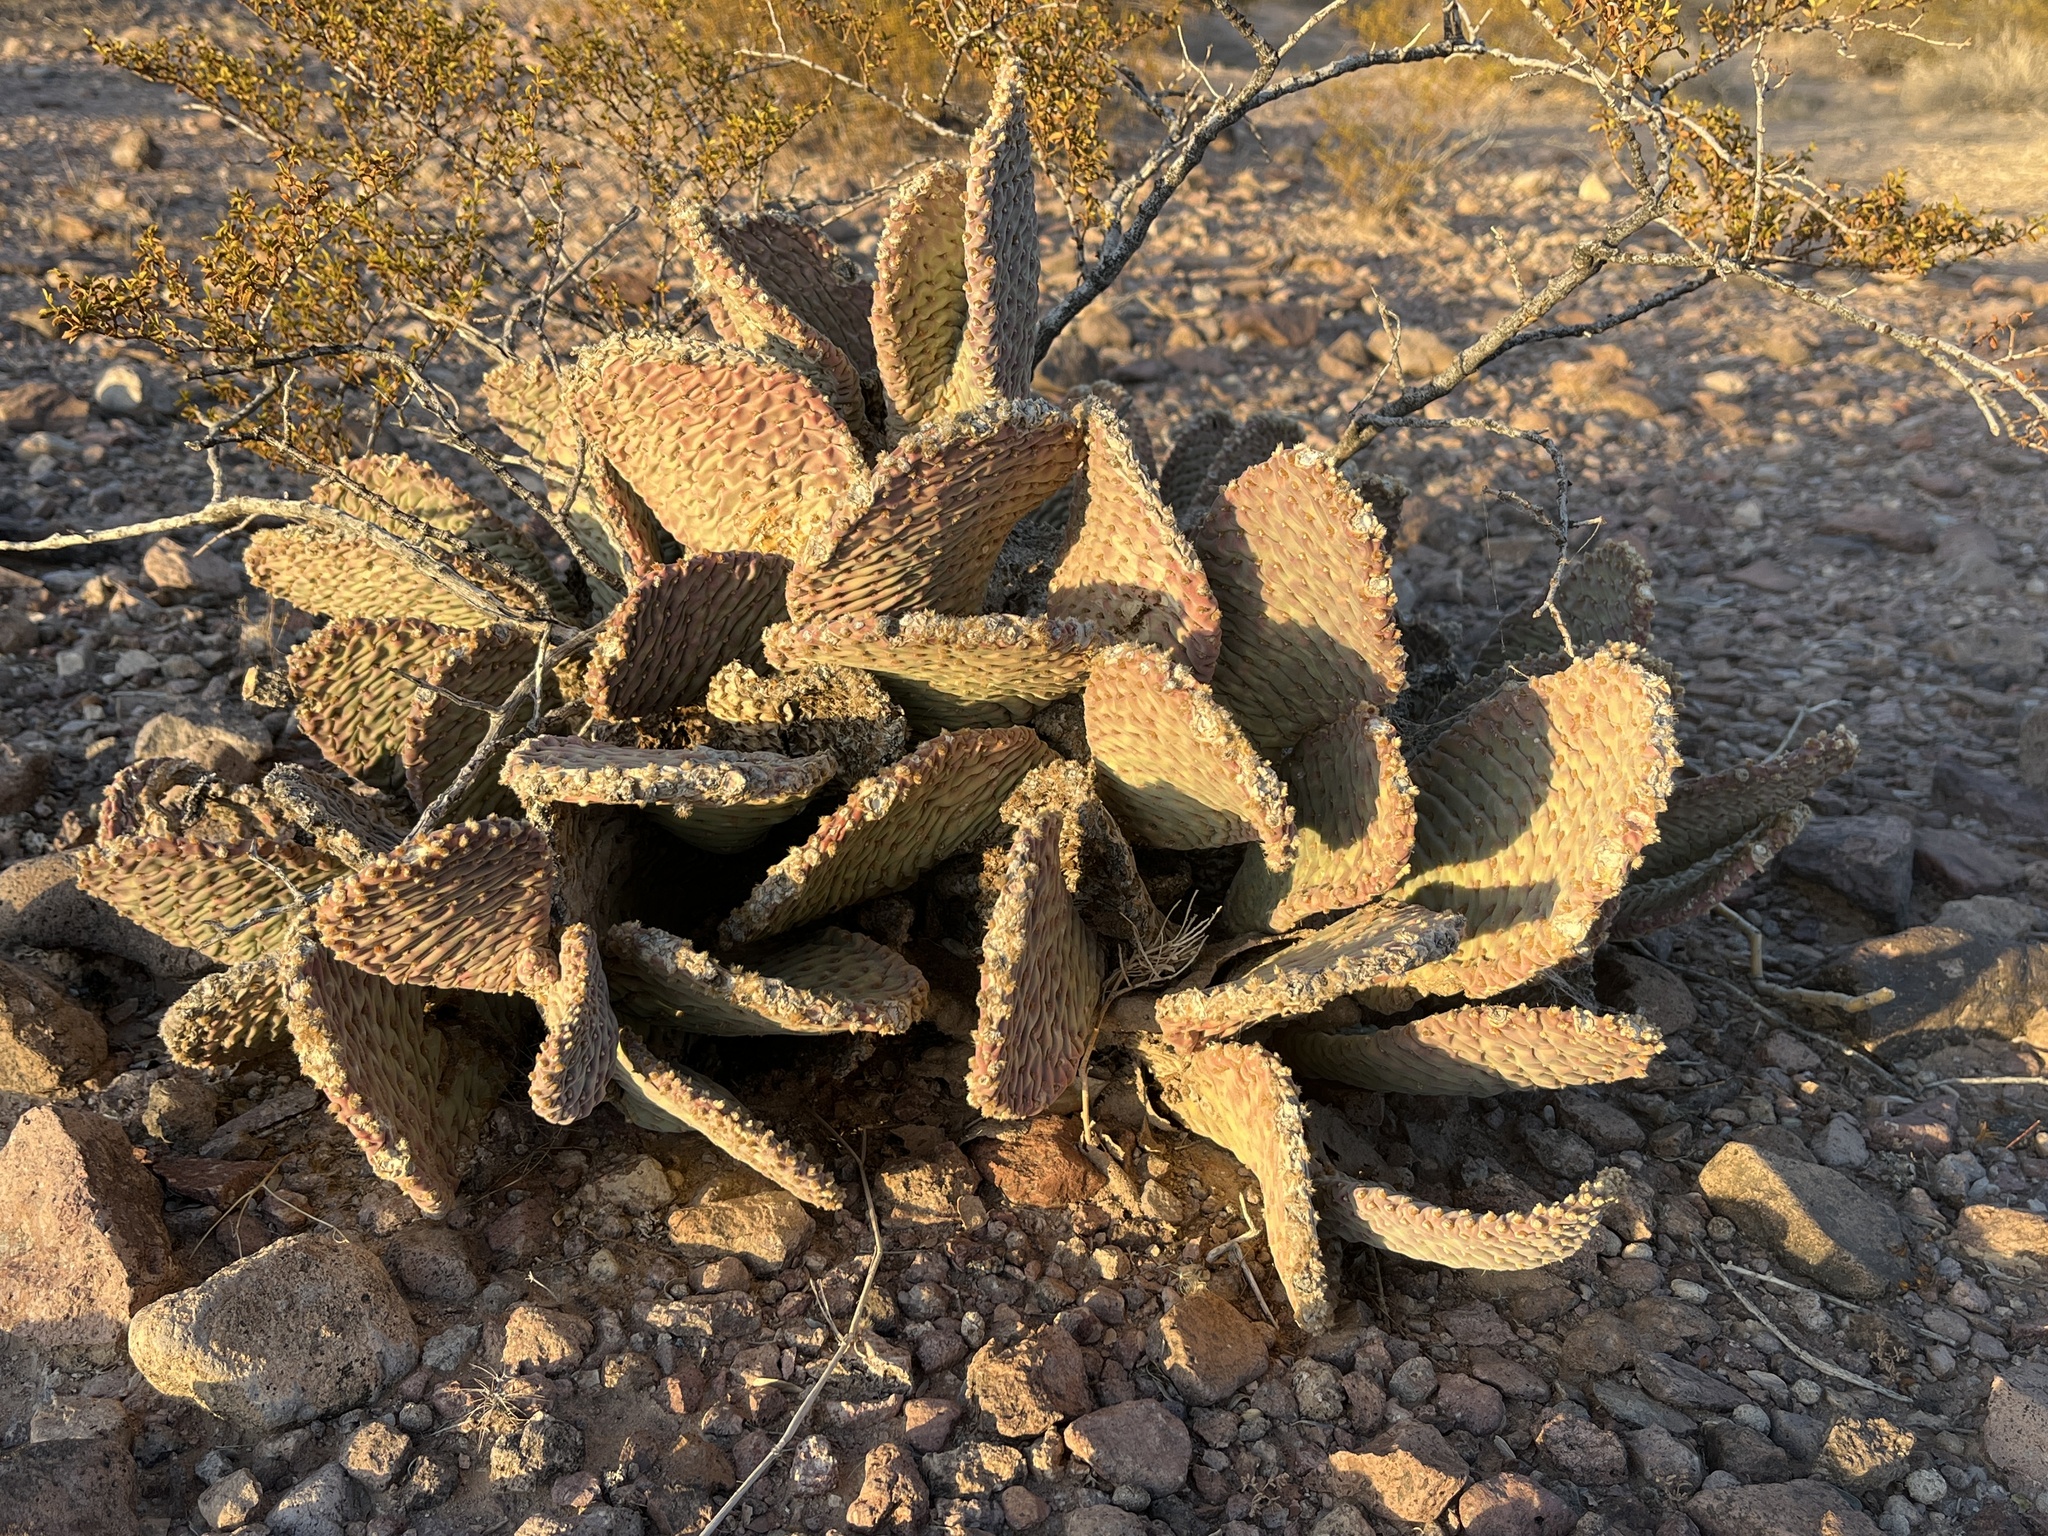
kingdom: Plantae
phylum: Tracheophyta
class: Magnoliopsida
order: Caryophyllales
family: Cactaceae
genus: Opuntia
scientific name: Opuntia basilaris
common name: Beavertail prickly-pear
